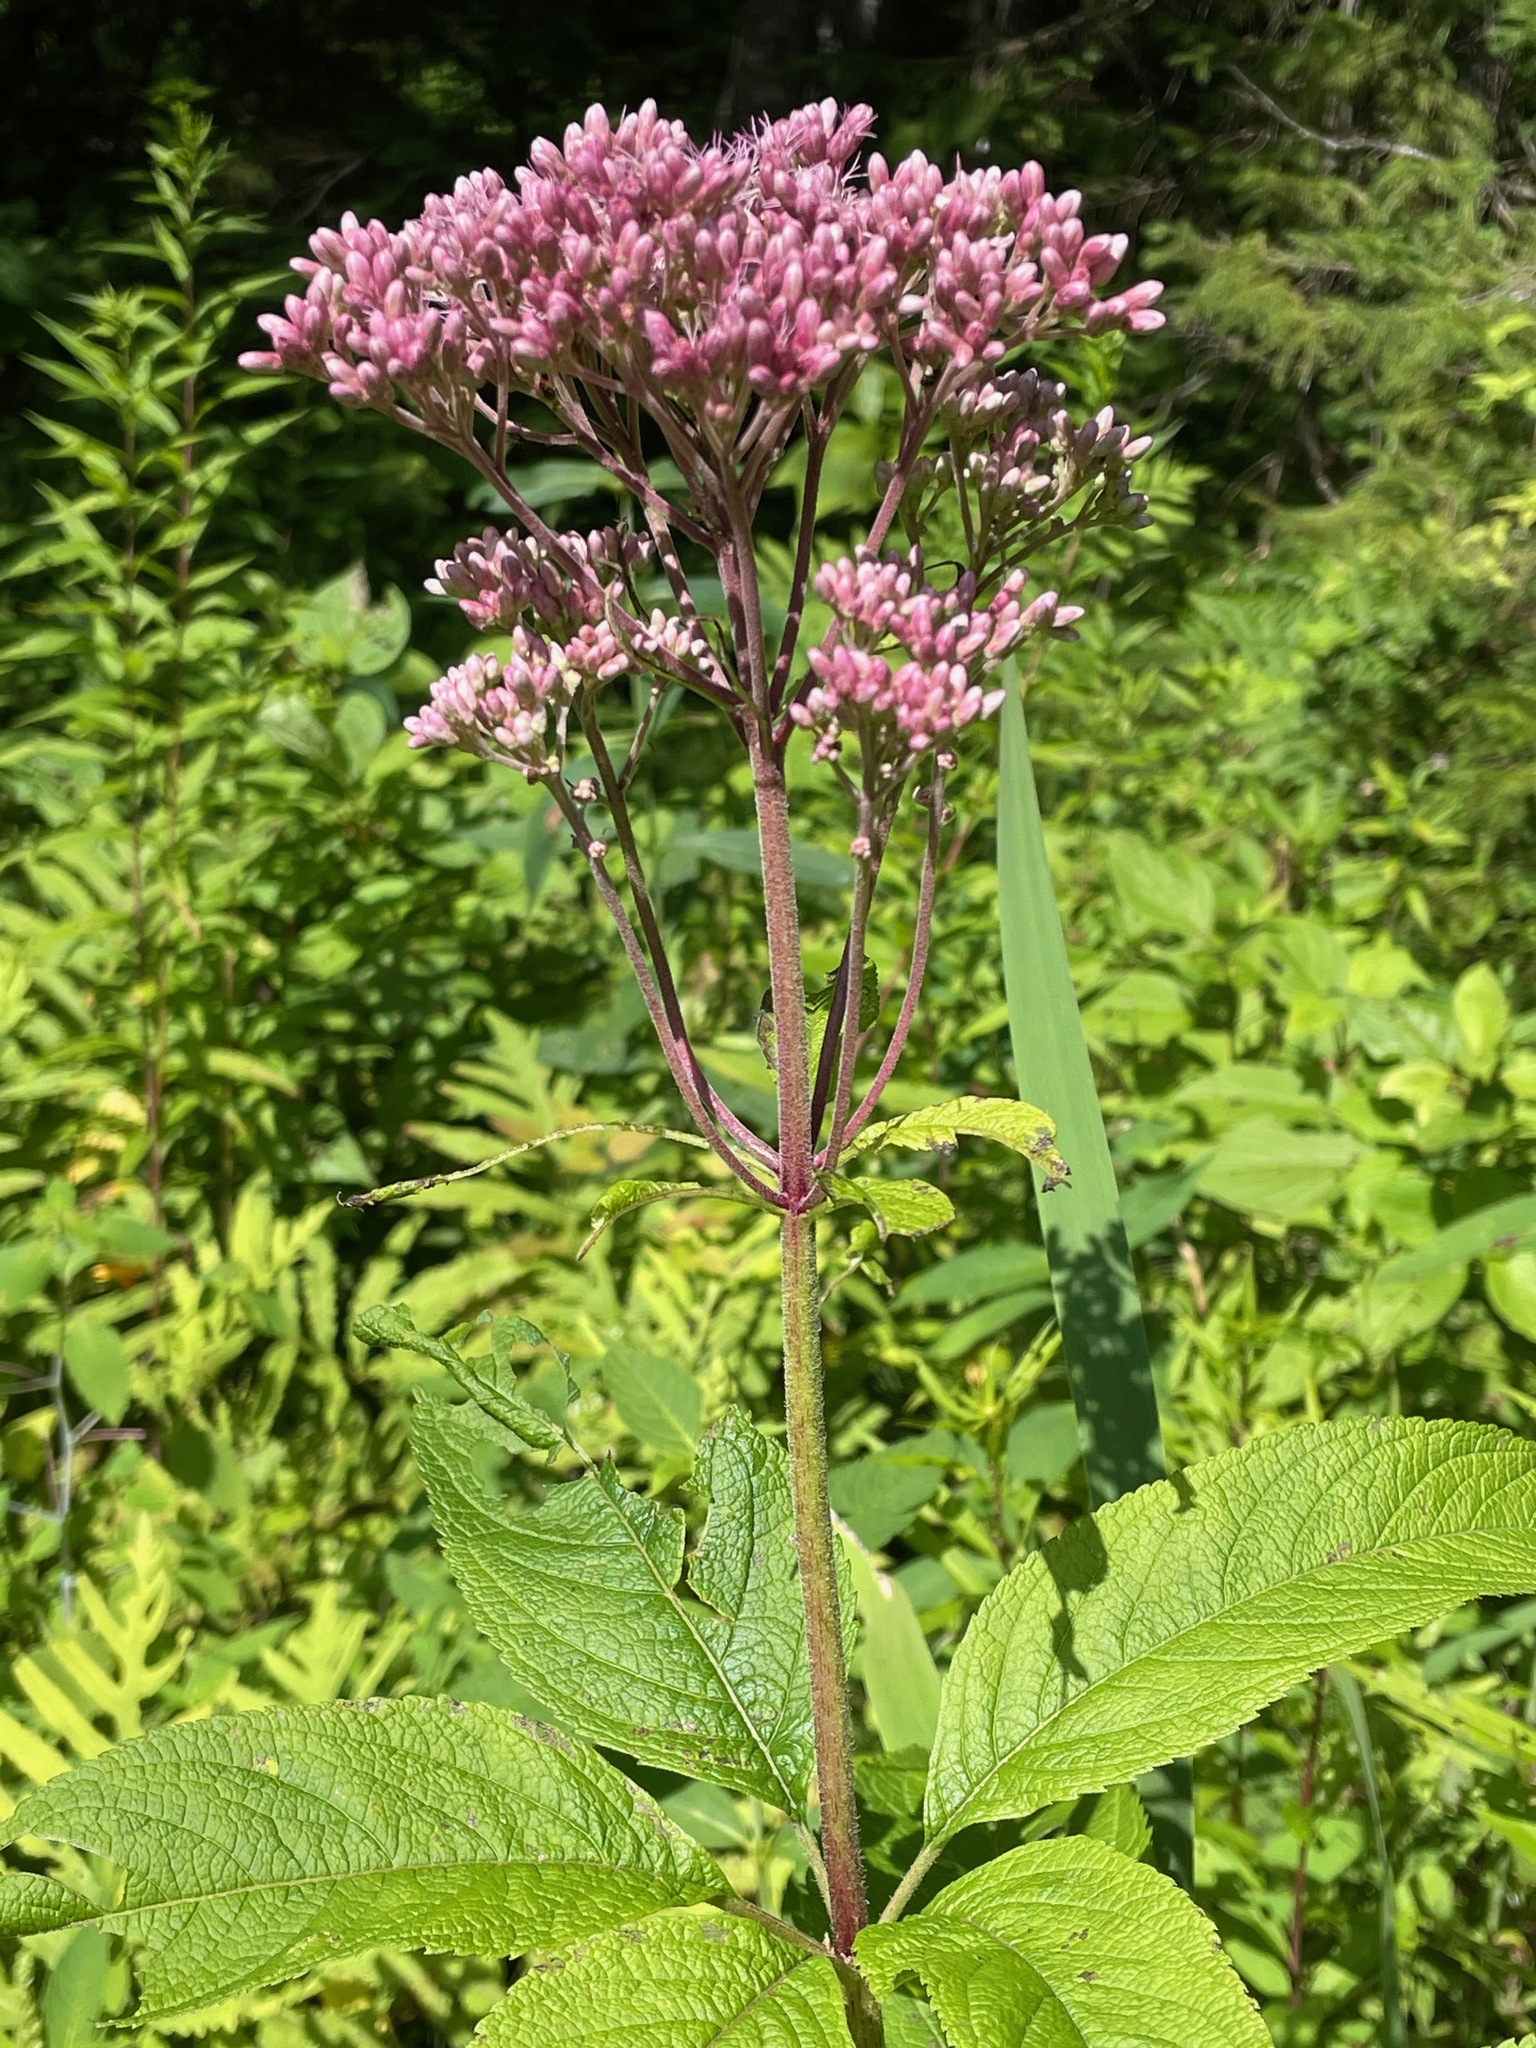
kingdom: Plantae
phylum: Tracheophyta
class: Magnoliopsida
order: Asterales
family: Asteraceae
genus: Eutrochium
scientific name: Eutrochium maculatum
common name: Spotted joe pye weed
